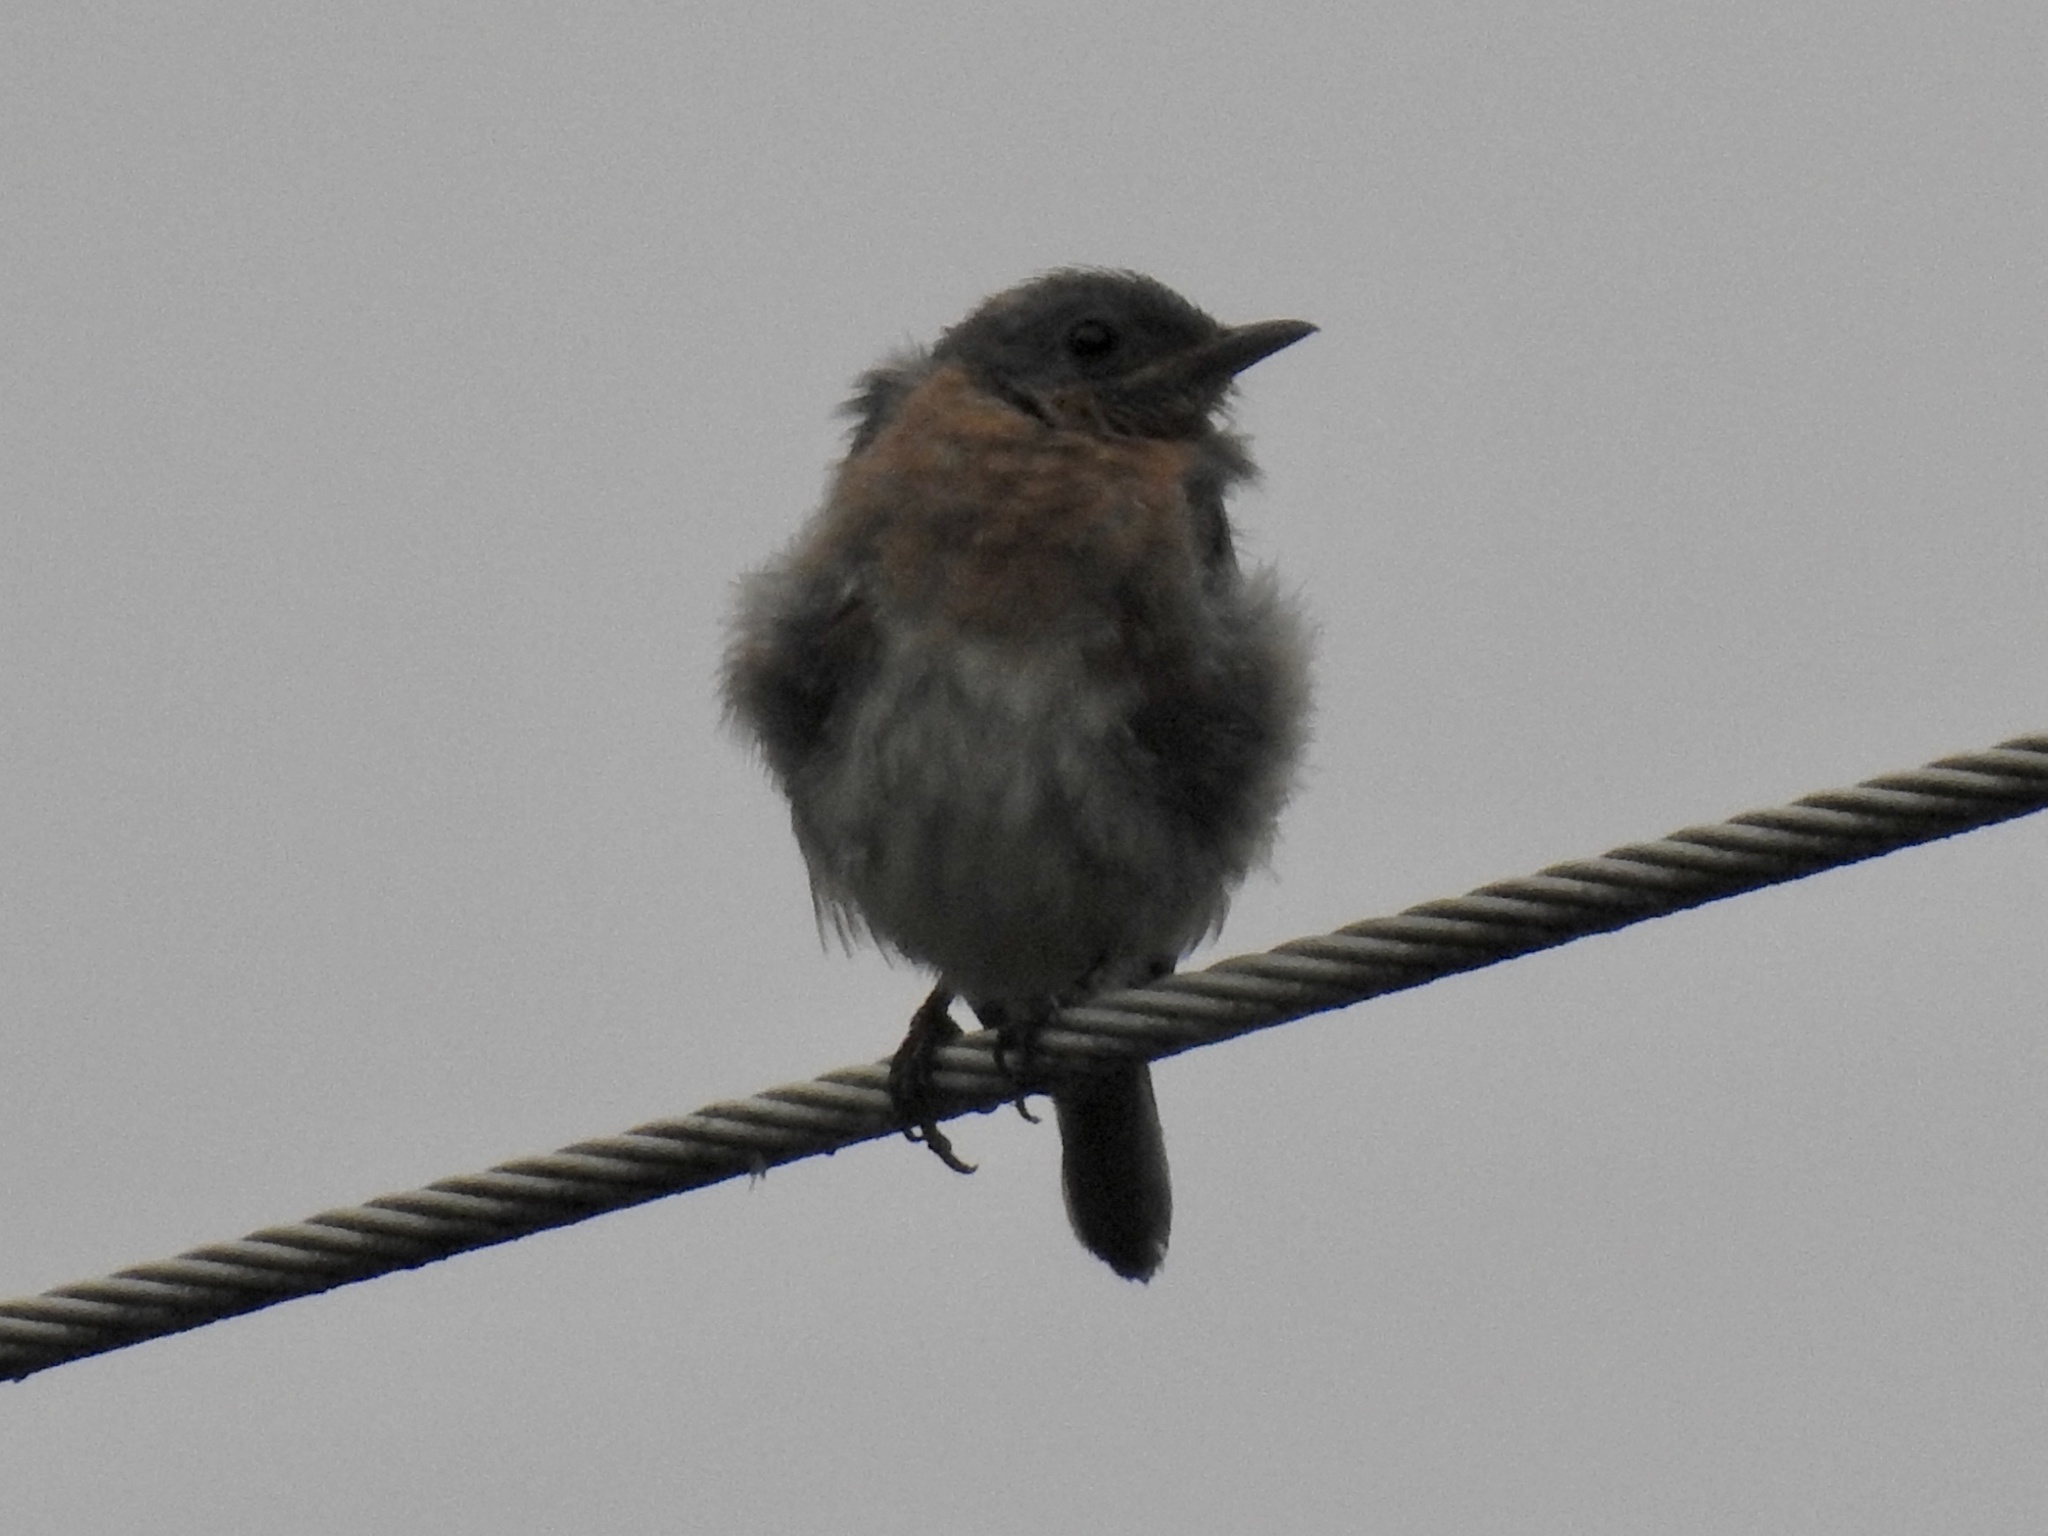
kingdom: Animalia
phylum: Chordata
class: Aves
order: Passeriformes
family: Turdidae
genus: Sialia
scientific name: Sialia sialis
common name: Eastern bluebird
